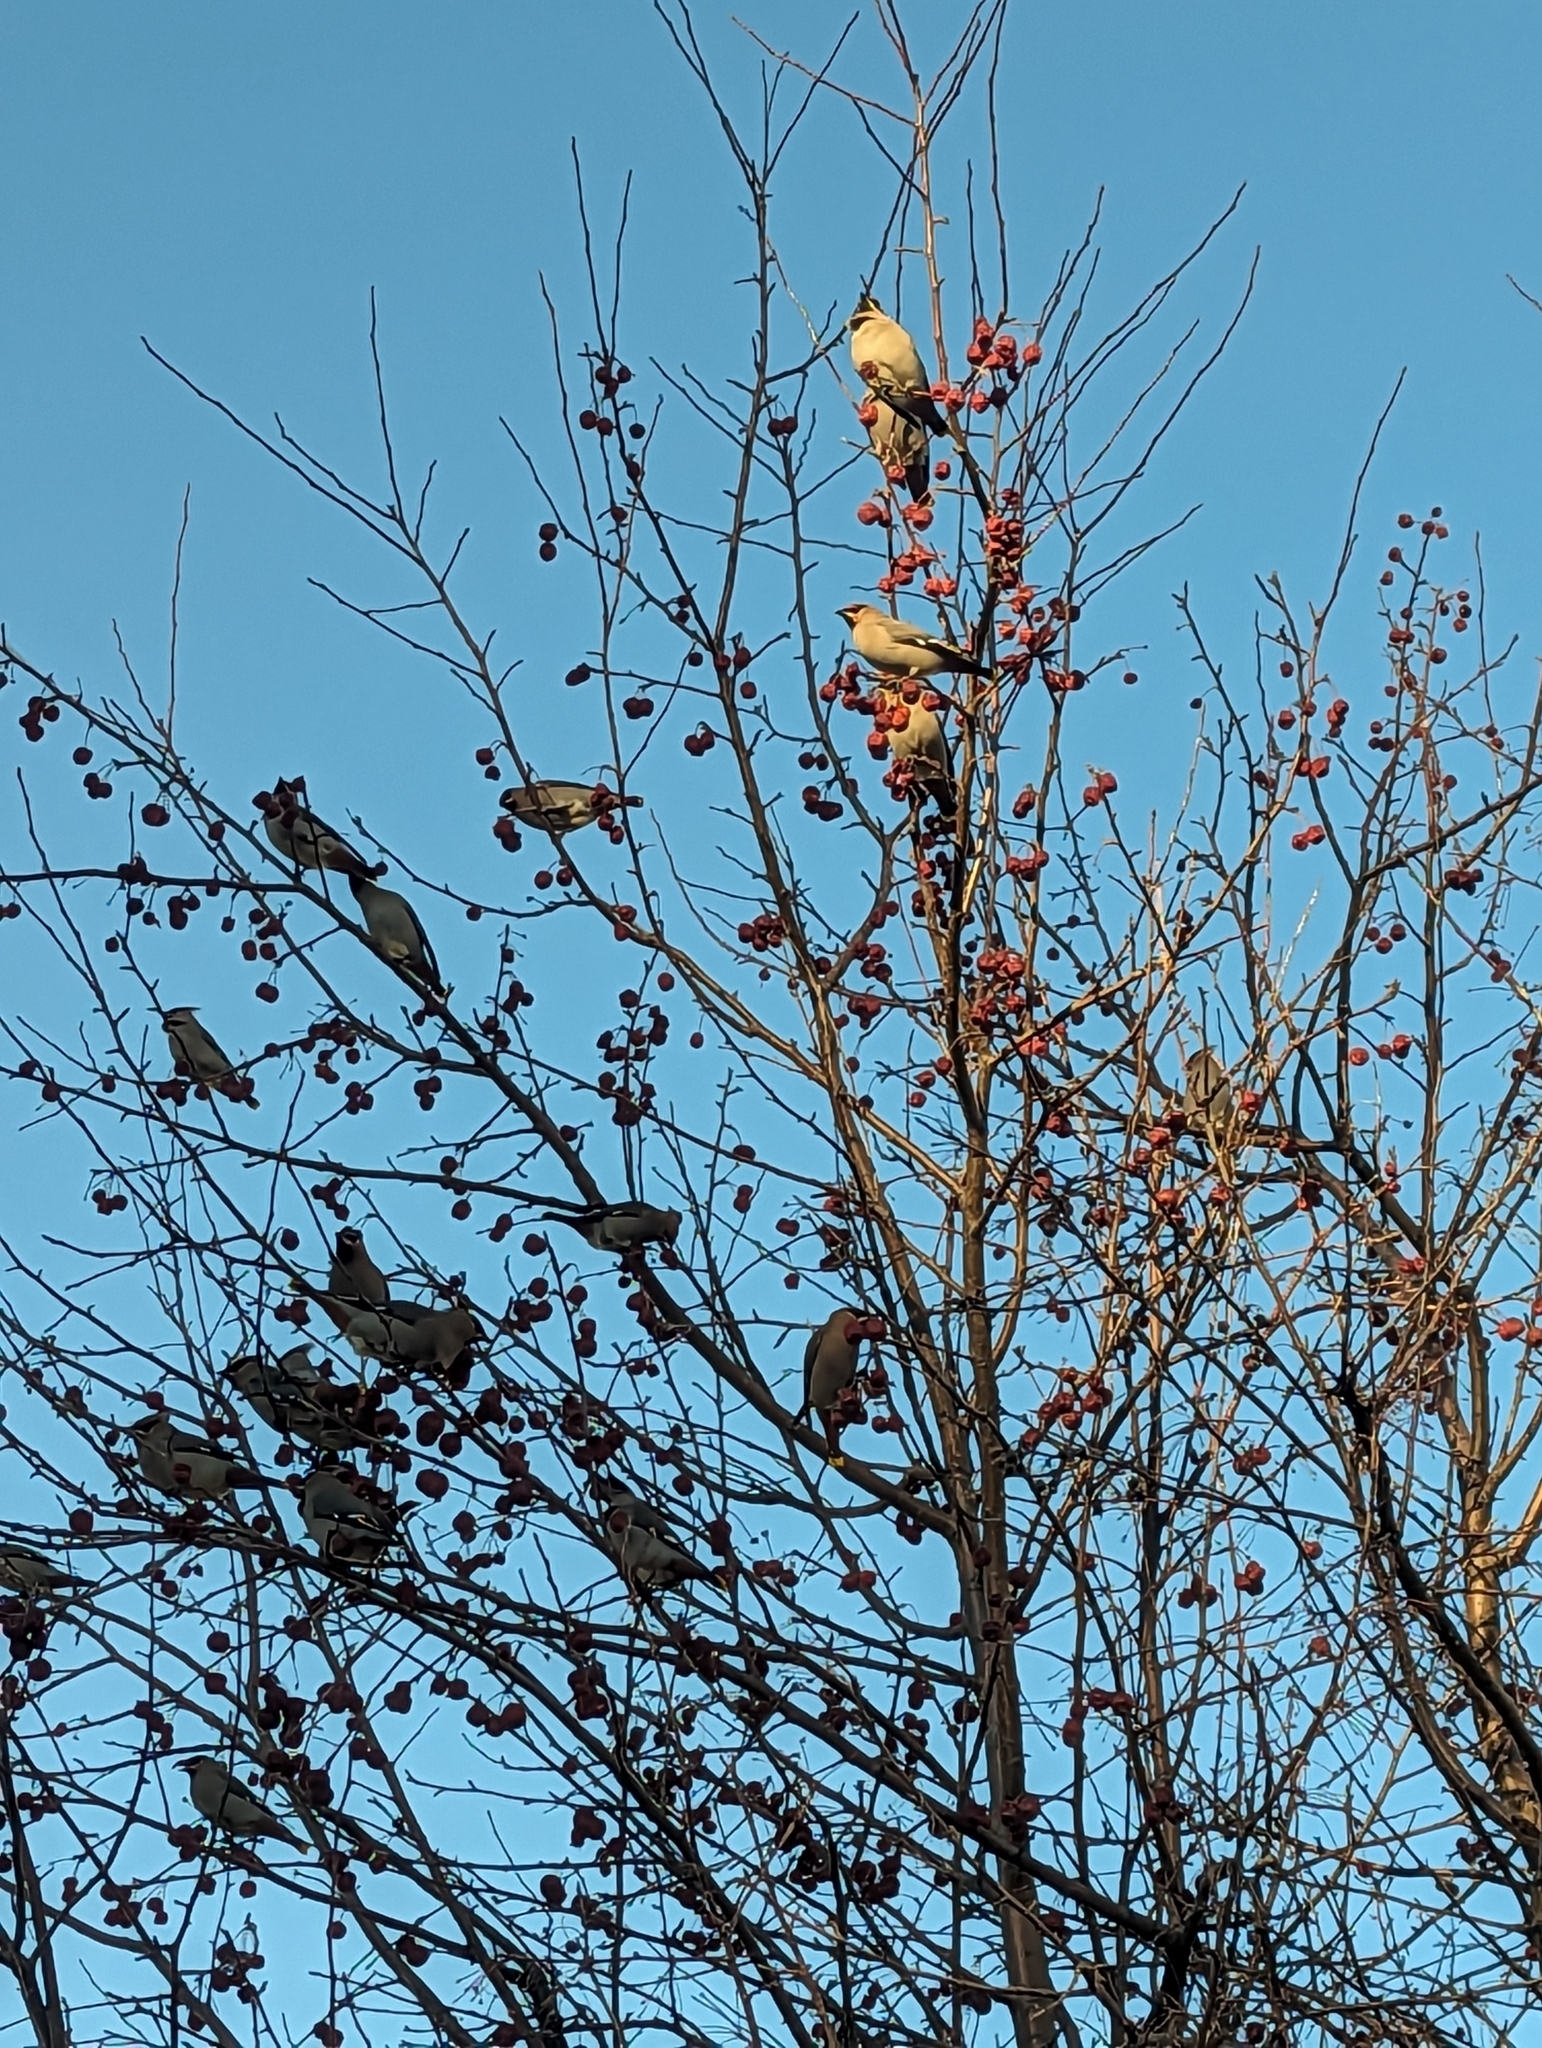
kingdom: Animalia
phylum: Chordata
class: Aves
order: Passeriformes
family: Bombycillidae
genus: Bombycilla
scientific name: Bombycilla garrulus
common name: Bohemian waxwing
